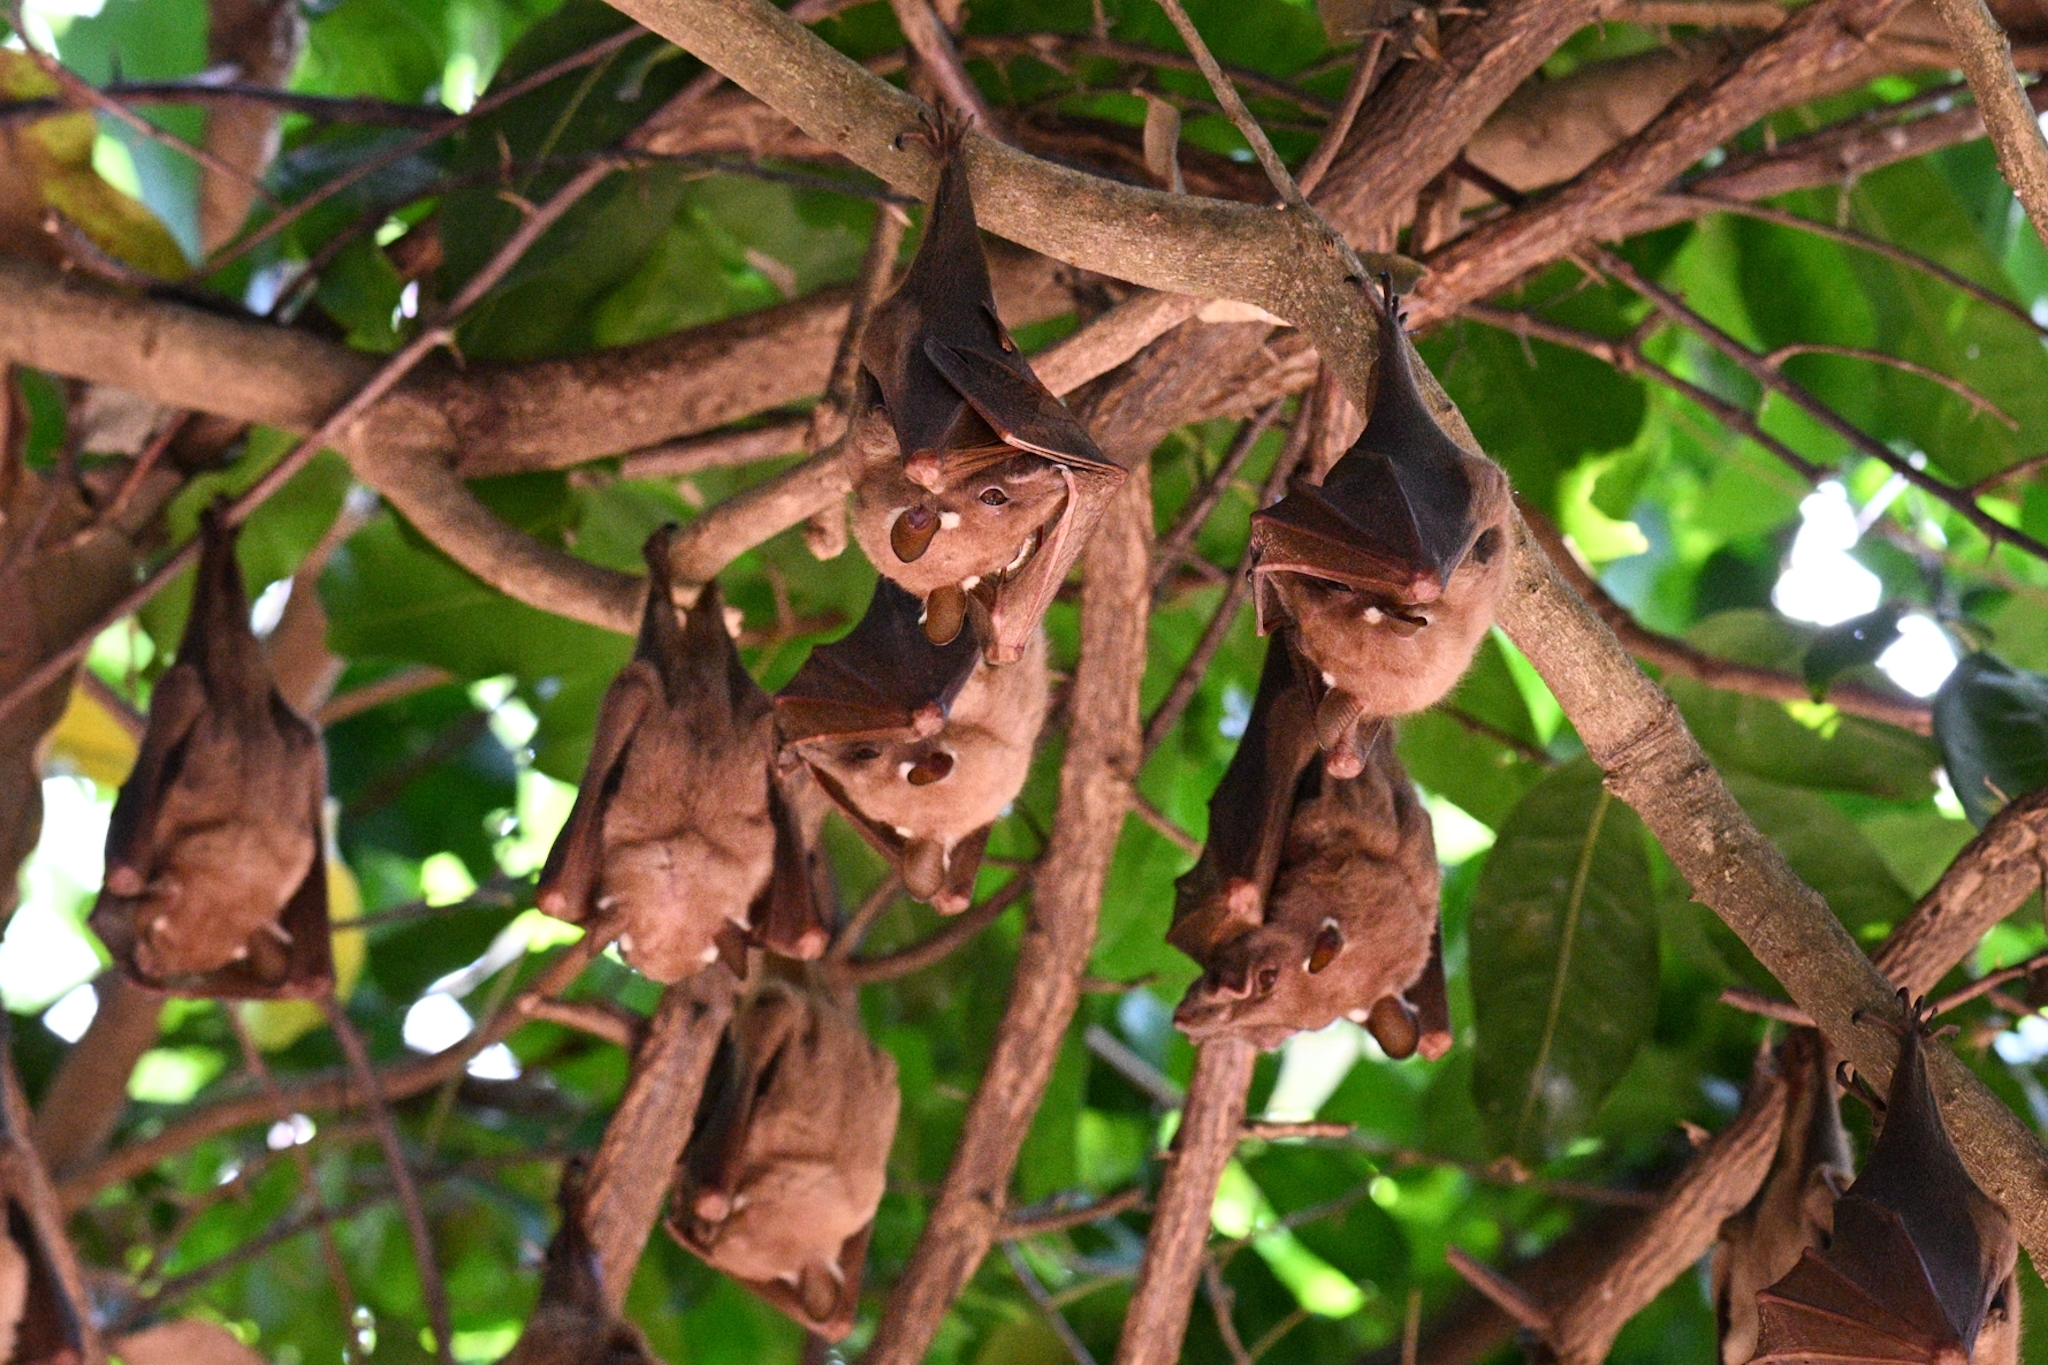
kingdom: Animalia
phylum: Chordata
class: Mammalia
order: Chiroptera
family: Pteropodidae
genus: Epomophorus
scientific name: Epomophorus gambianus
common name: Gambian epauletted fruit bat
